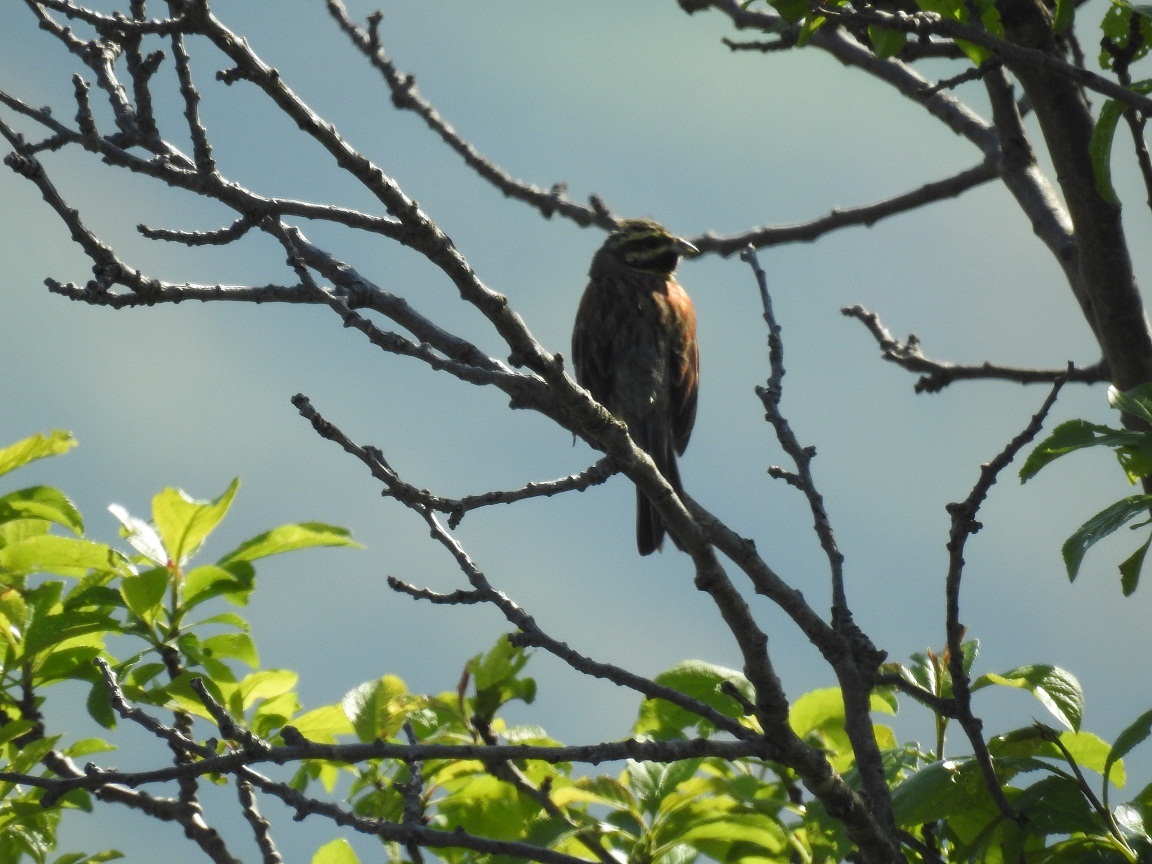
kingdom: Animalia
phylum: Chordata
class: Aves
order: Passeriformes
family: Emberizidae
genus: Emberiza
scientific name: Emberiza cirlus
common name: Cirl bunting
